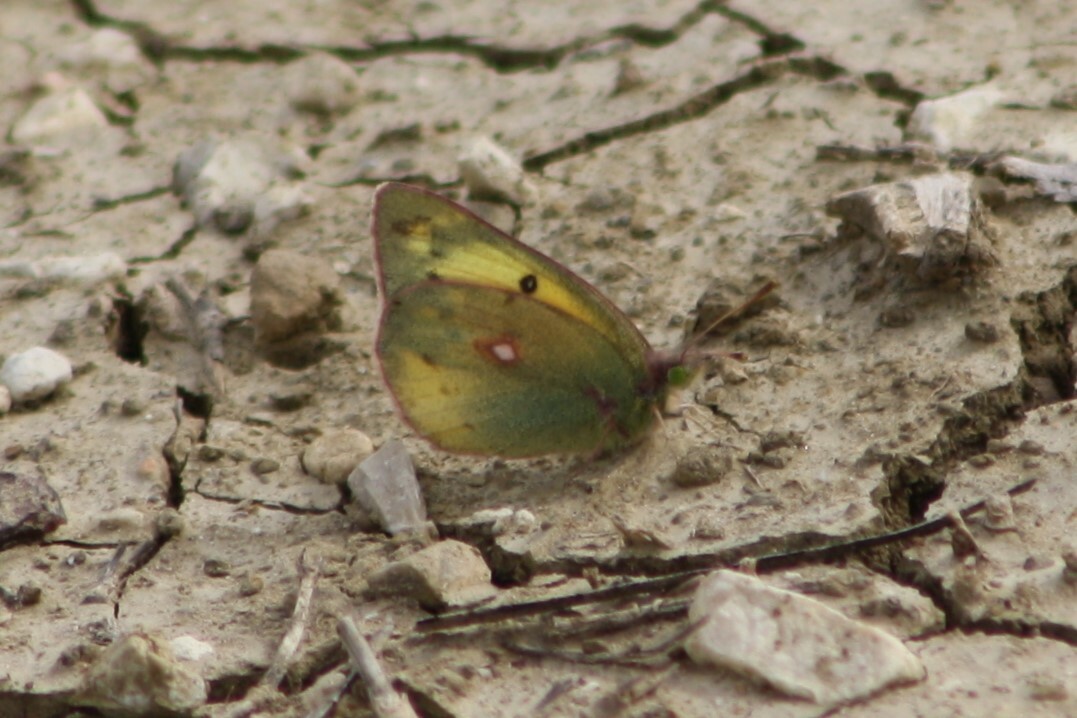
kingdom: Animalia
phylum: Arthropoda
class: Insecta
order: Lepidoptera
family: Pieridae
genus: Colias
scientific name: Colias eurytheme
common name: Alfalfa butterfly
